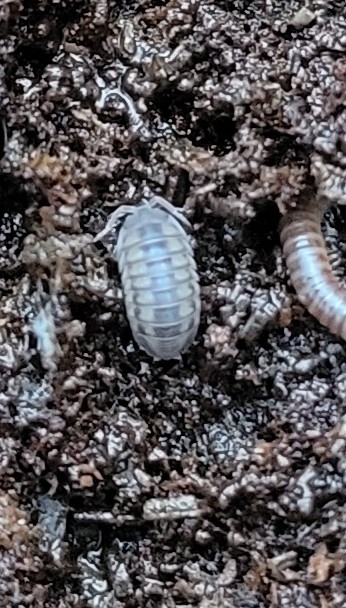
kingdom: Animalia
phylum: Arthropoda
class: Malacostraca
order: Isopoda
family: Armadillidiidae
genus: Armadillidium
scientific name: Armadillidium nasatum
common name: Isopod
